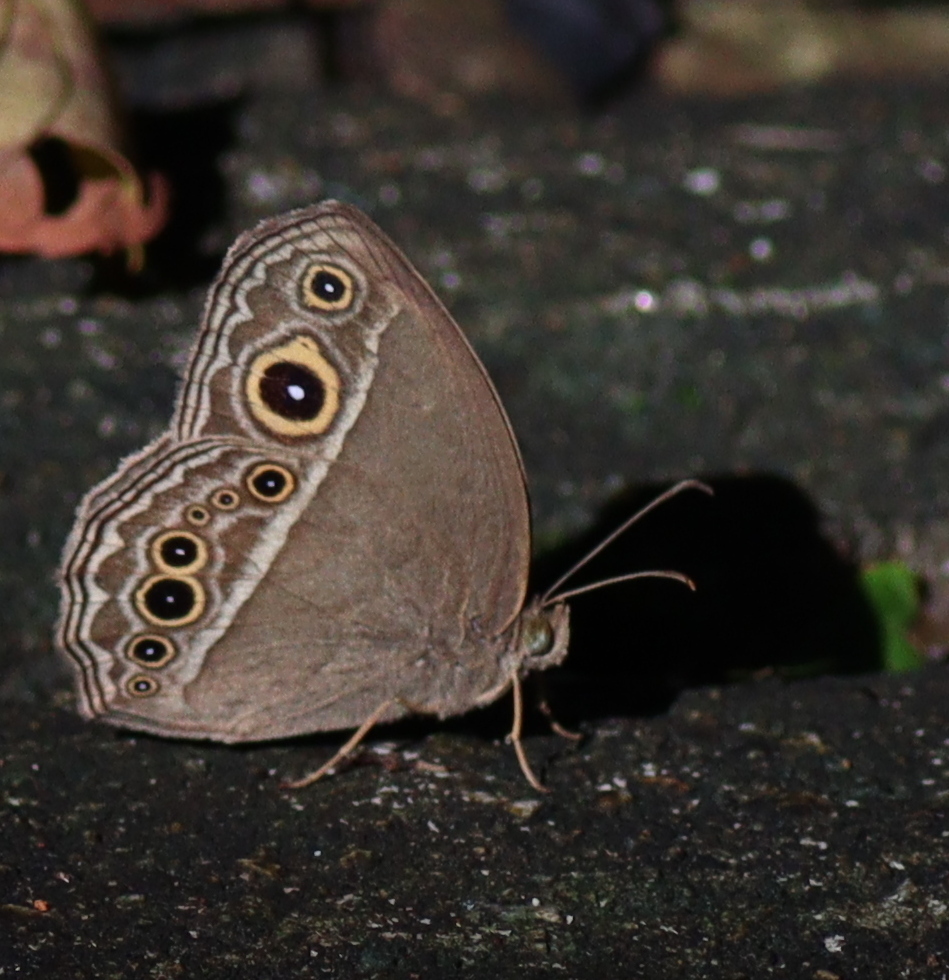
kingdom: Animalia
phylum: Arthropoda
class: Insecta
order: Lepidoptera
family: Nymphalidae
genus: Mycalesis
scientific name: Mycalesis horsfieldii
